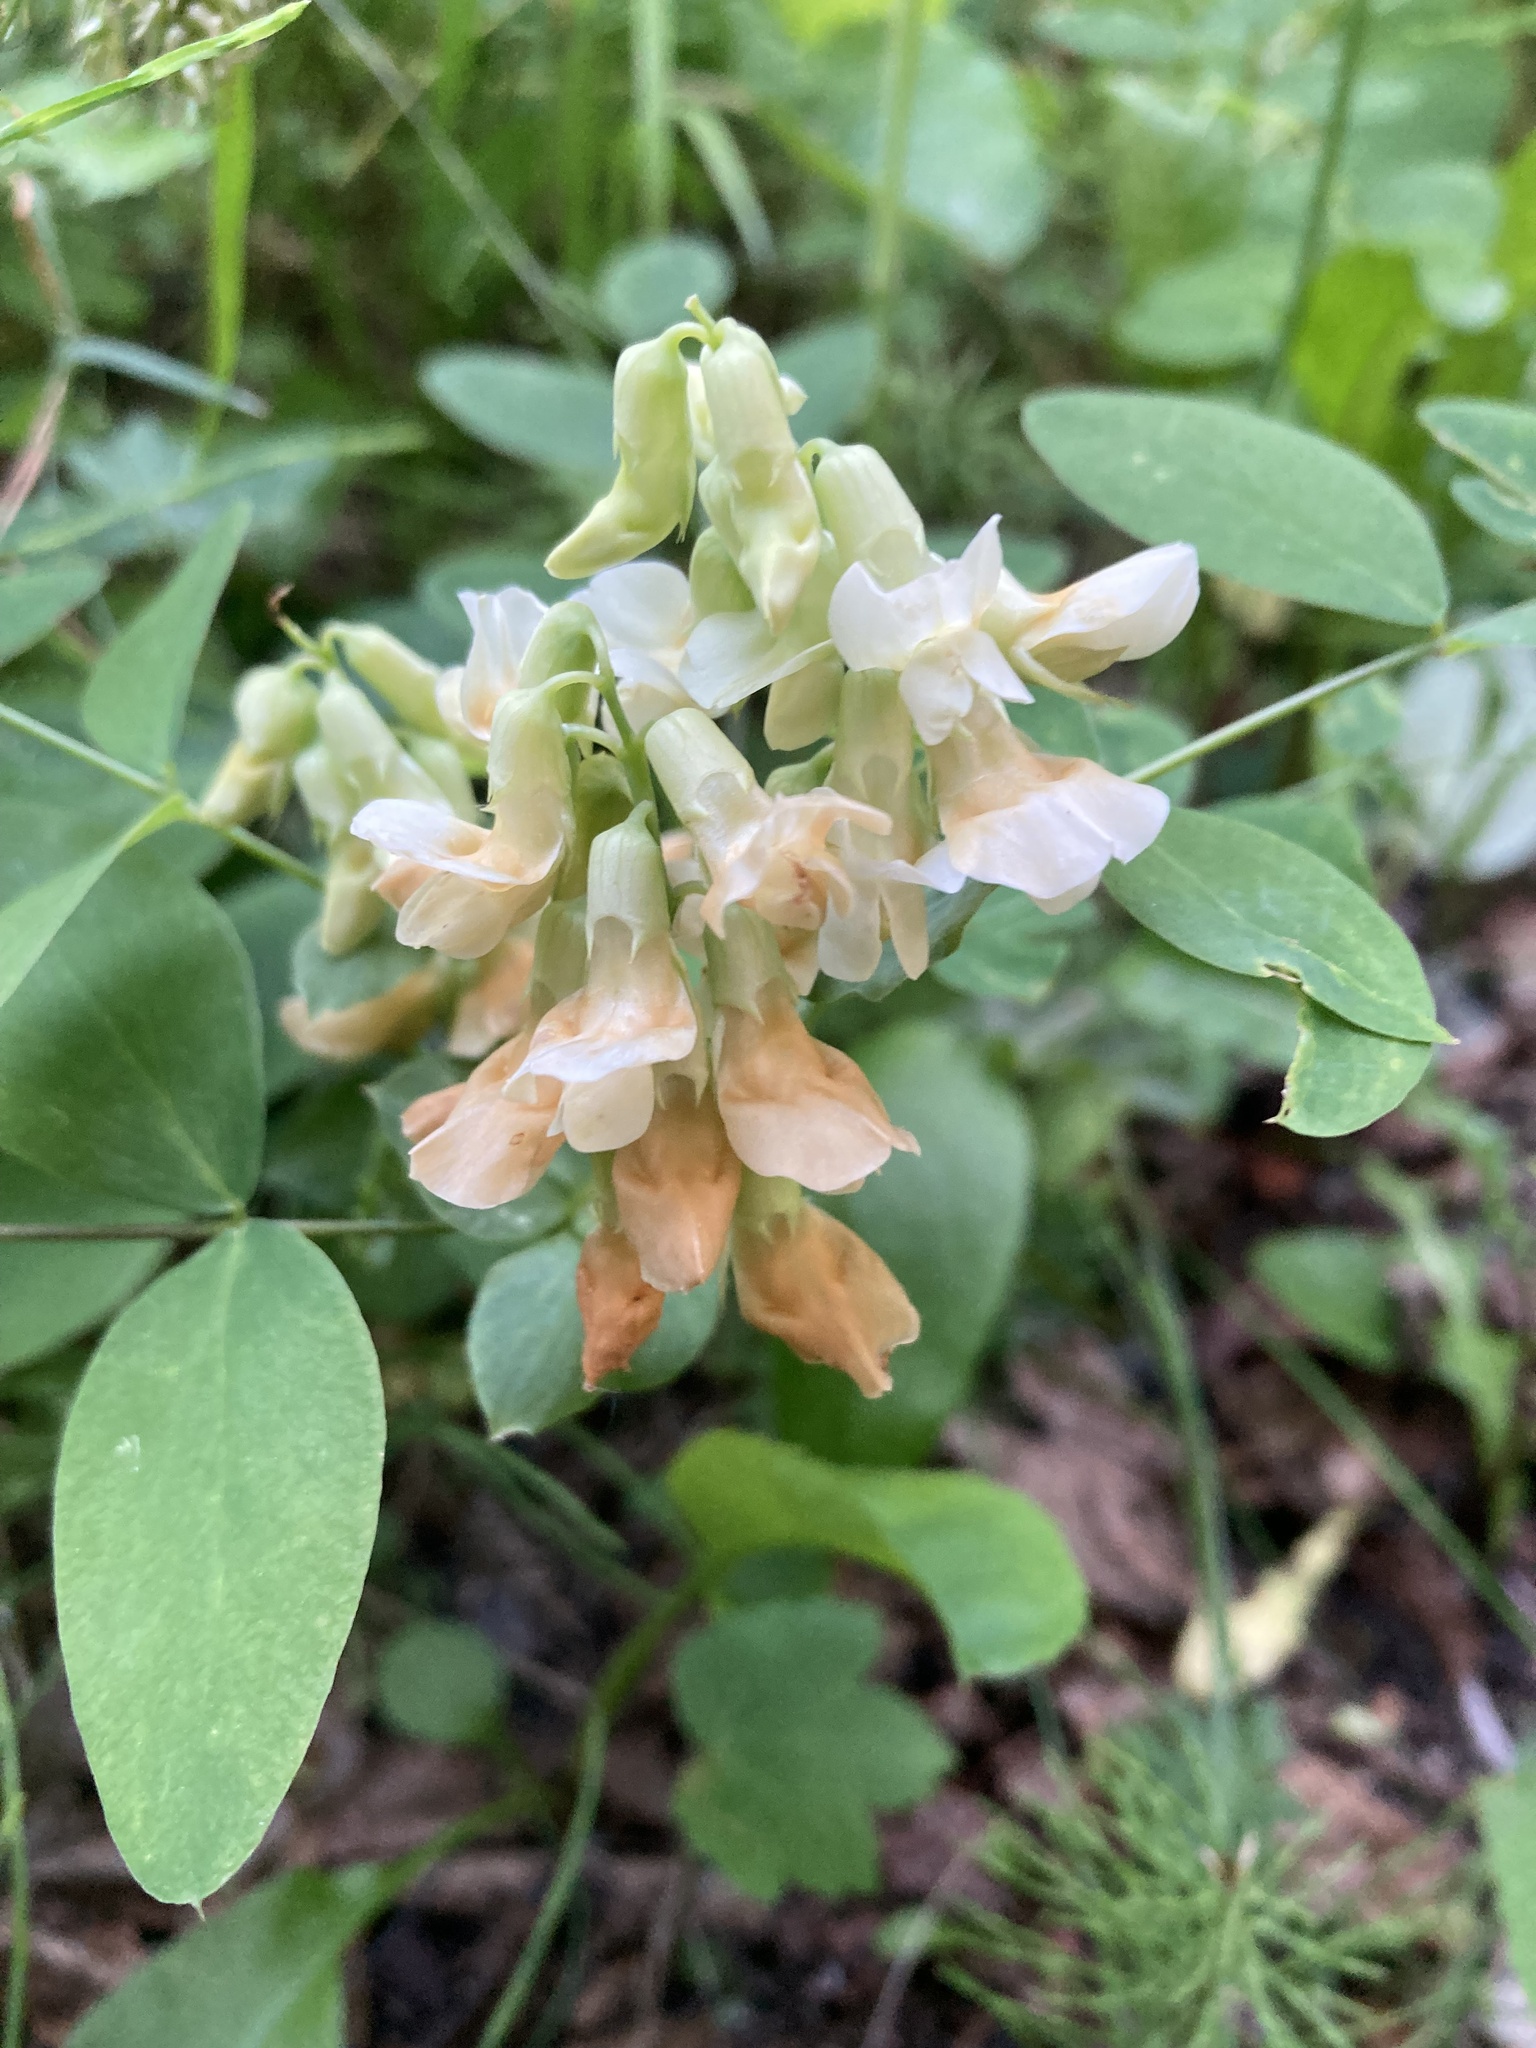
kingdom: Plantae
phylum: Tracheophyta
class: Magnoliopsida
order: Fabales
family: Fabaceae
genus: Lathyrus
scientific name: Lathyrus ochroleucus
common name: Pale vetchling
